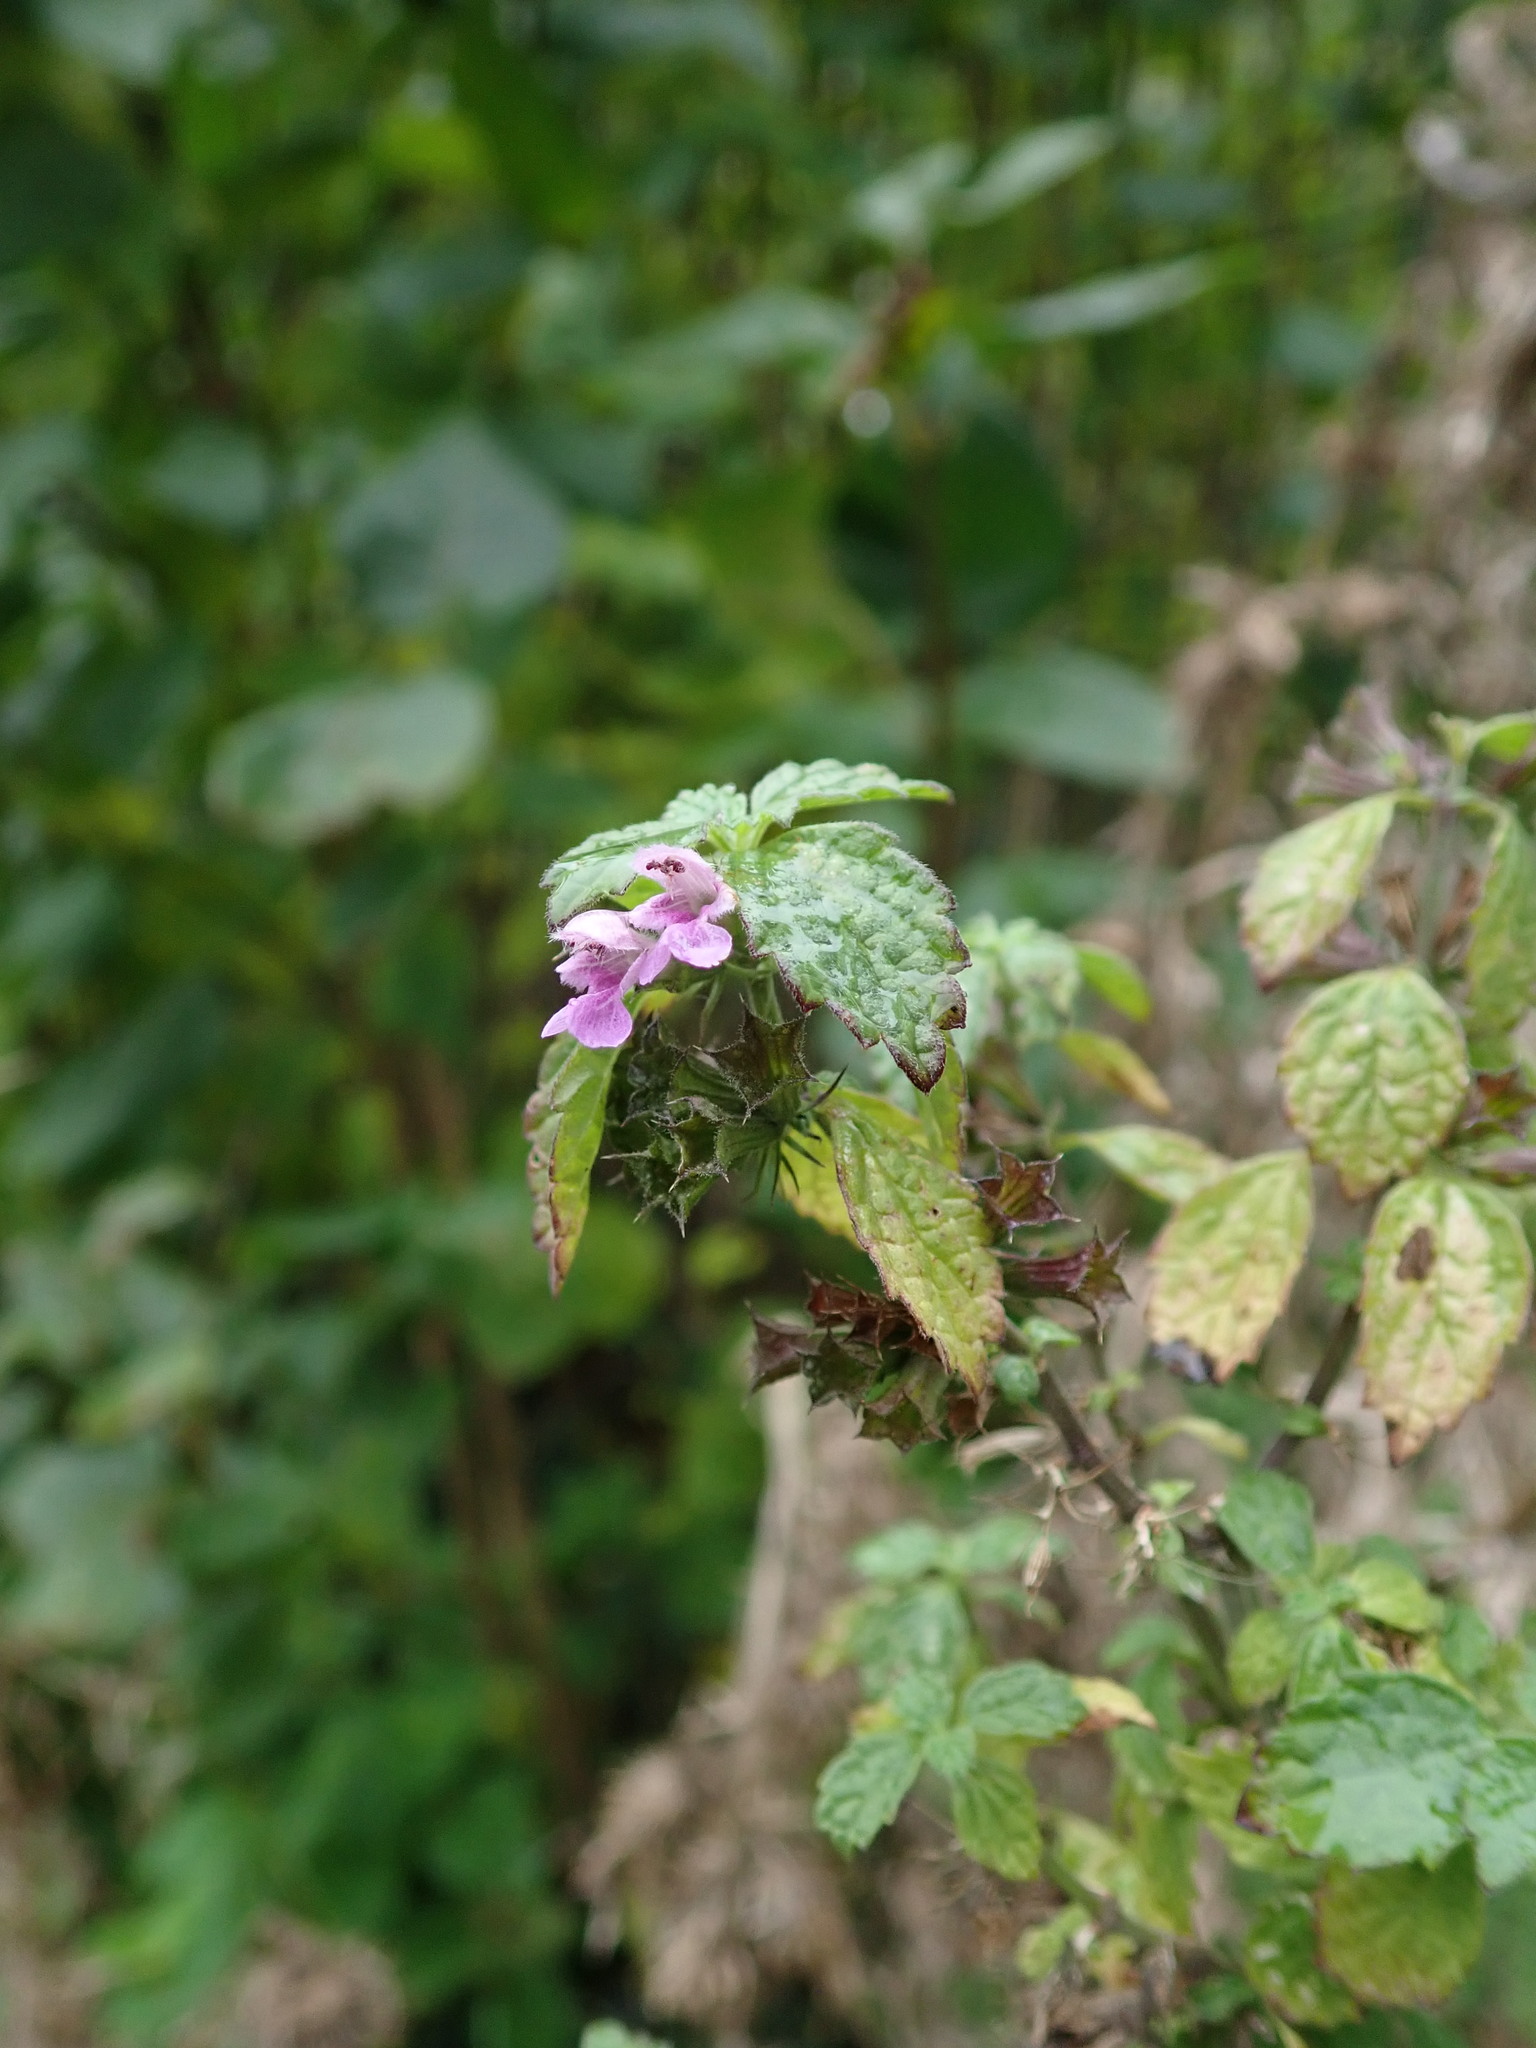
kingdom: Plantae
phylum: Tracheophyta
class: Magnoliopsida
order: Lamiales
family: Lamiaceae
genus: Ballota
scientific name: Ballota nigra
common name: Black horehound
